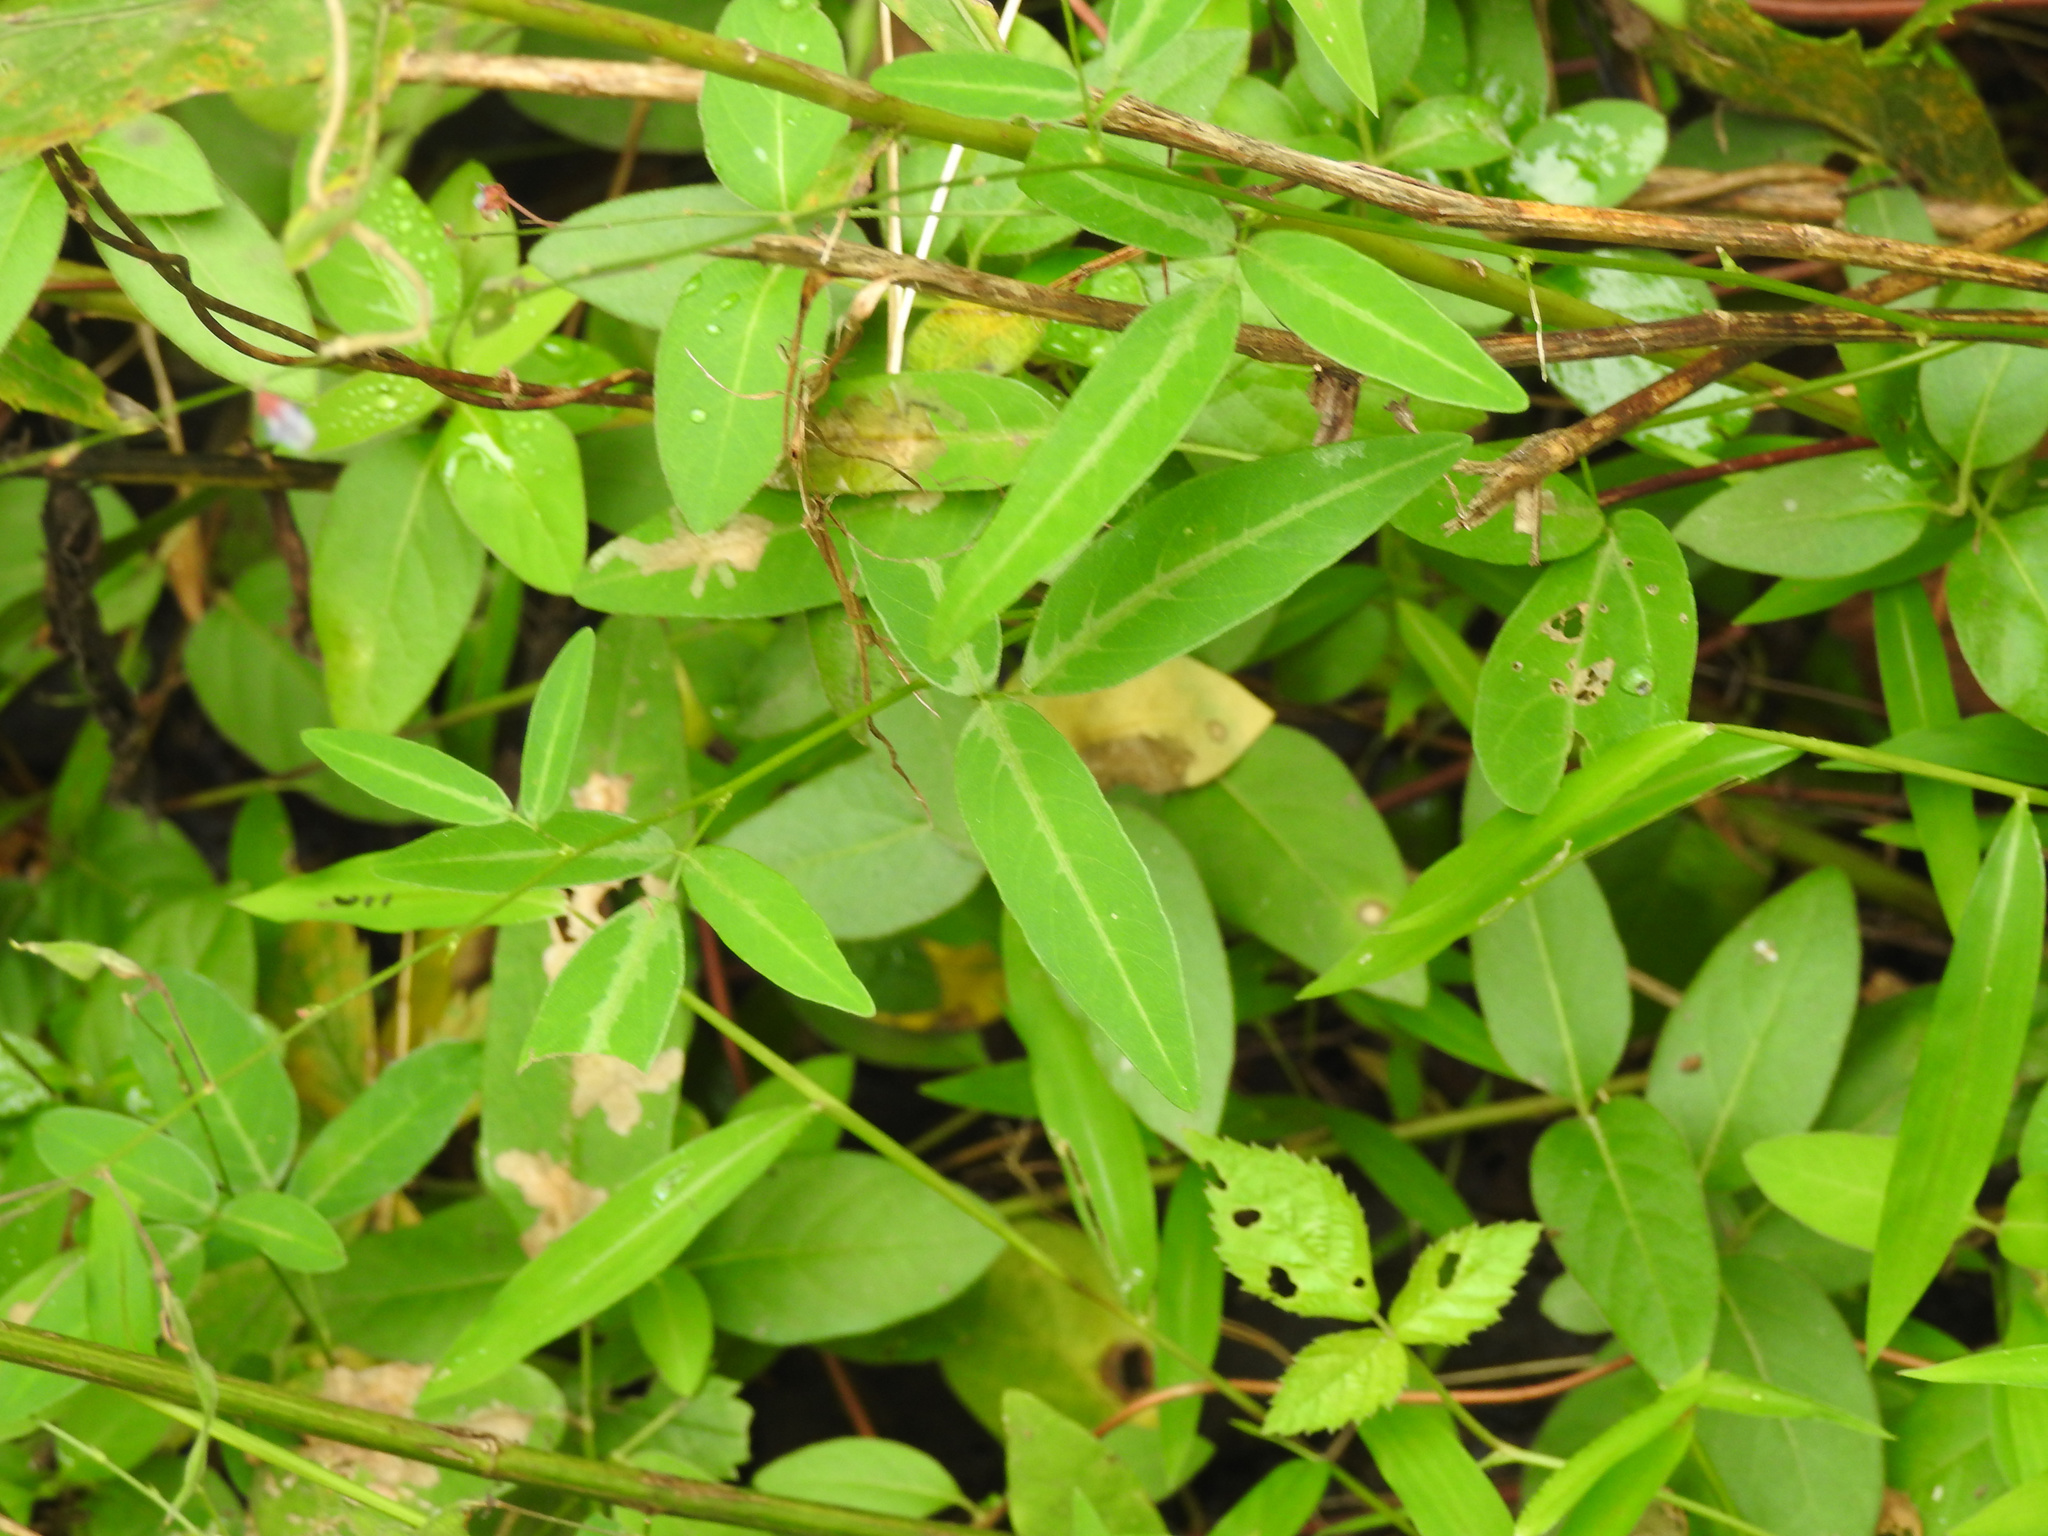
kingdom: Plantae
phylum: Tracheophyta
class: Magnoliopsida
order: Fabales
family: Fabaceae
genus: Desmodium
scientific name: Desmodium paniculatum
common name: Panicled tick-clover
